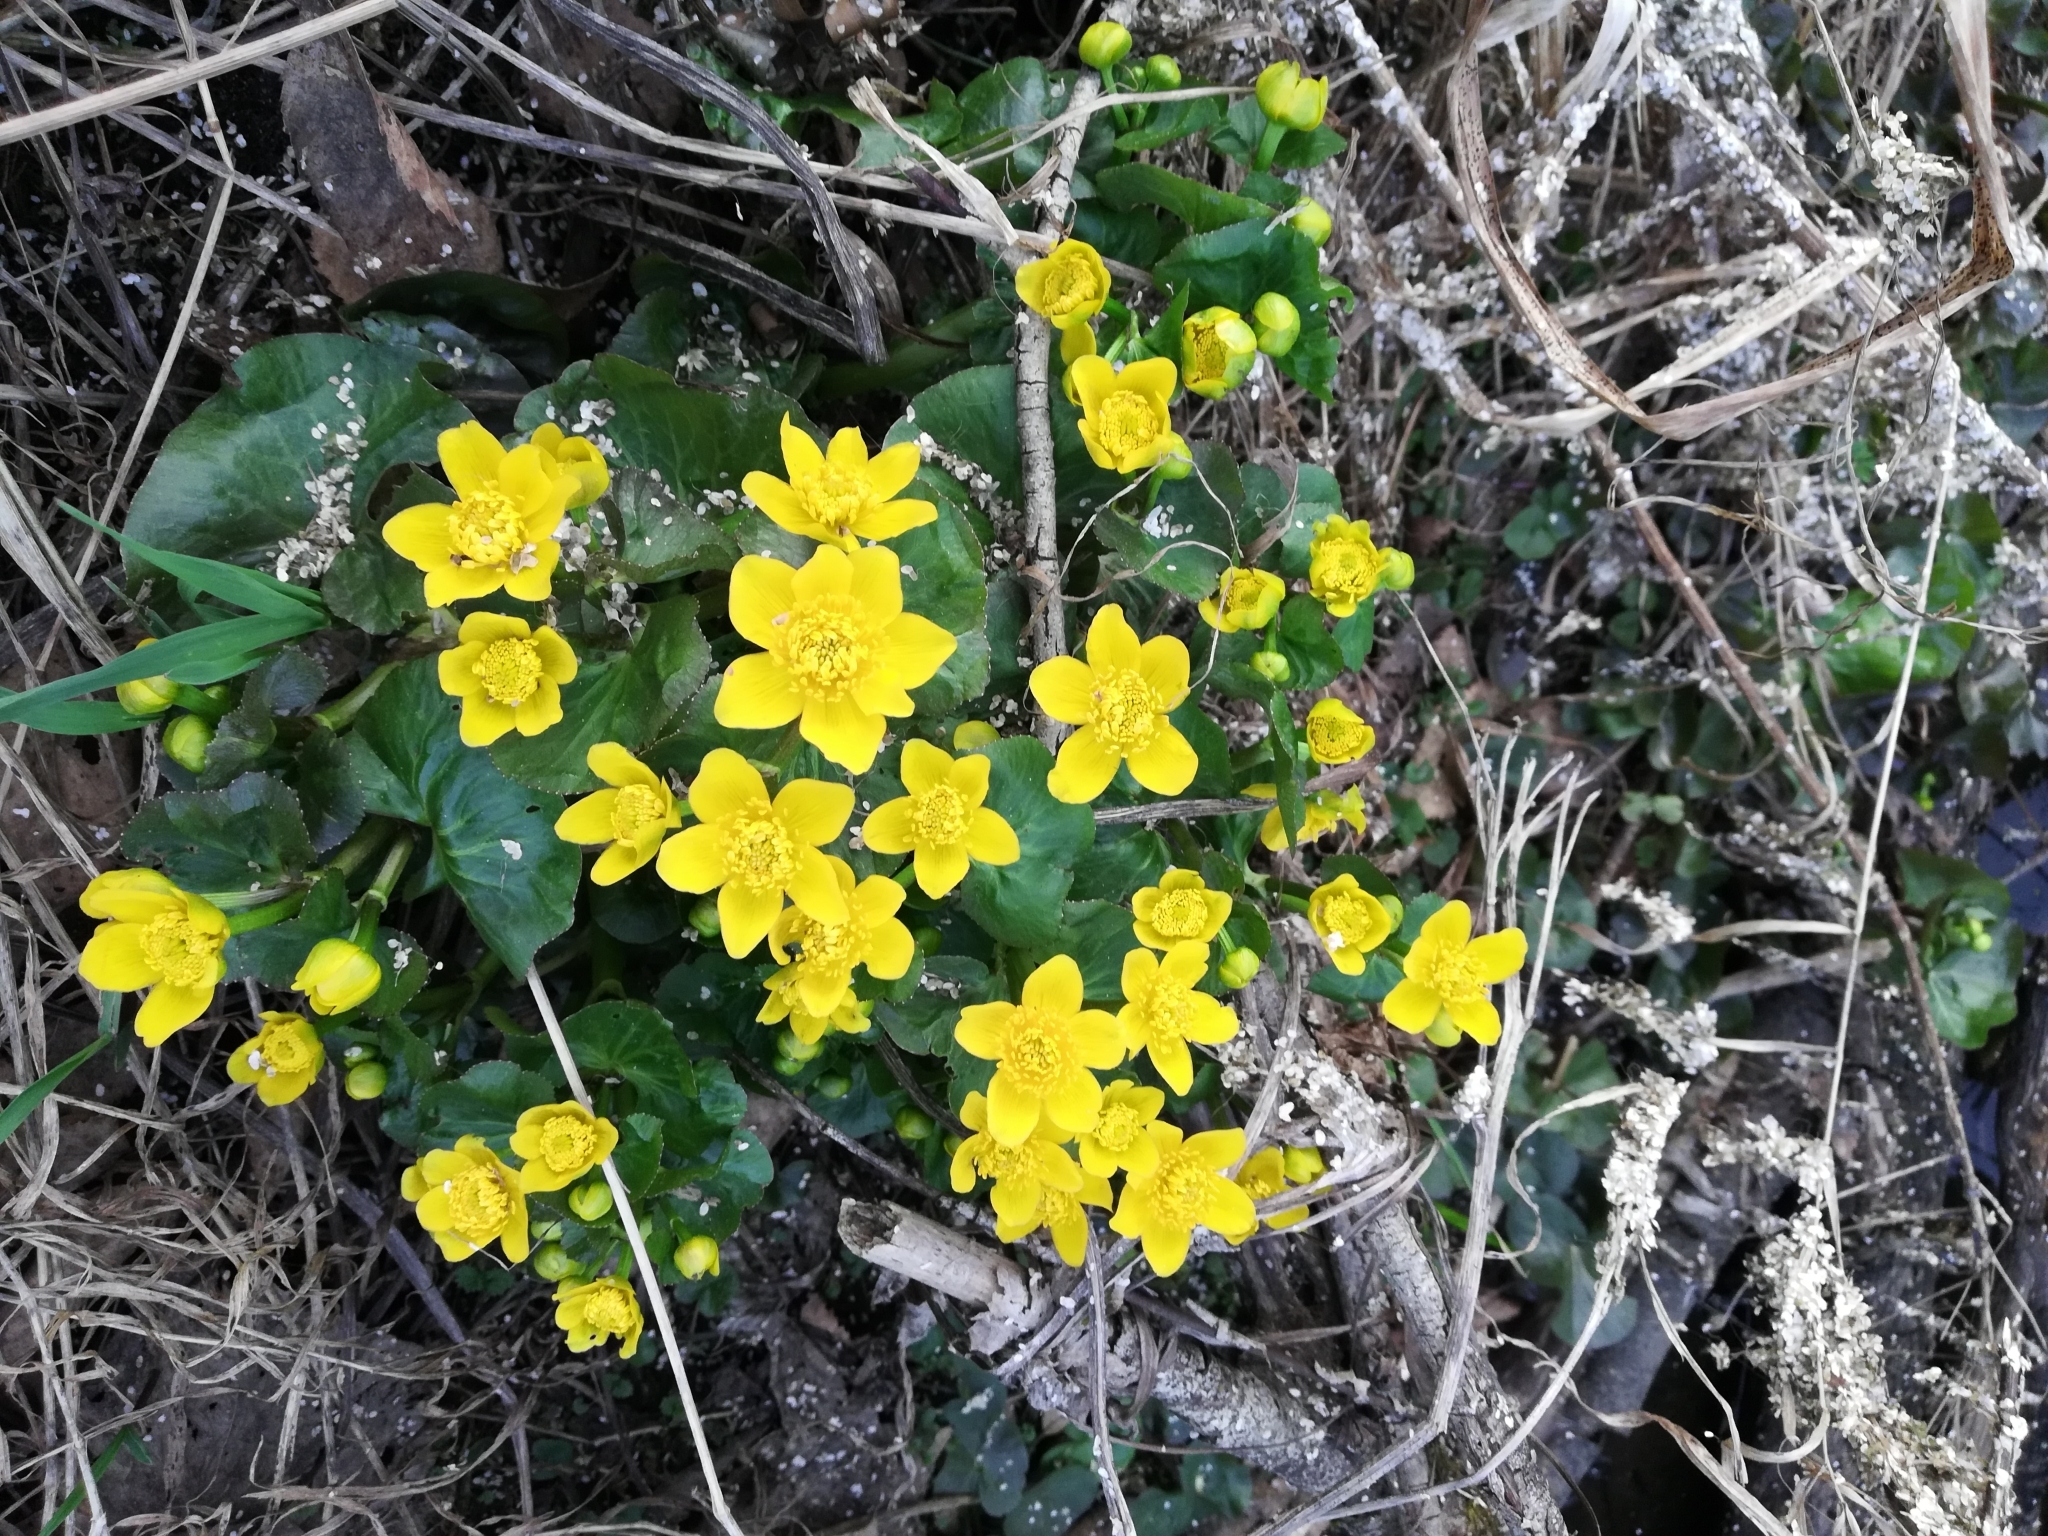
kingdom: Plantae
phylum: Tracheophyta
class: Magnoliopsida
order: Ranunculales
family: Ranunculaceae
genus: Caltha
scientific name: Caltha palustris
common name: Marsh marigold
